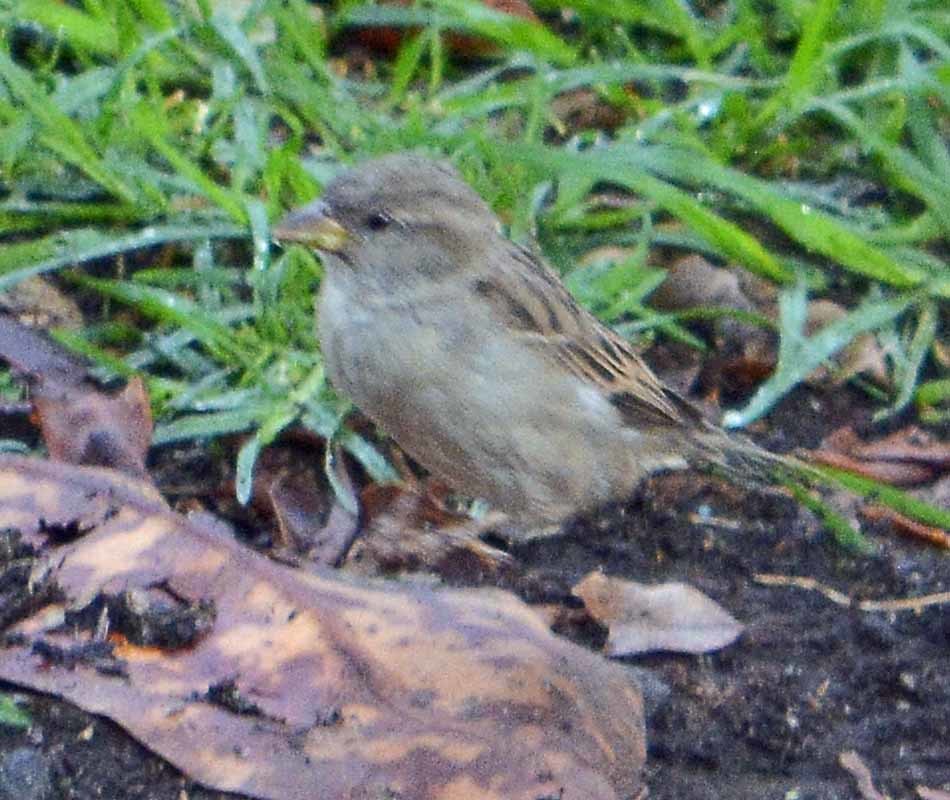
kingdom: Animalia
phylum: Chordata
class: Aves
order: Passeriformes
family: Passeridae
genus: Passer
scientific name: Passer domesticus
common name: House sparrow
